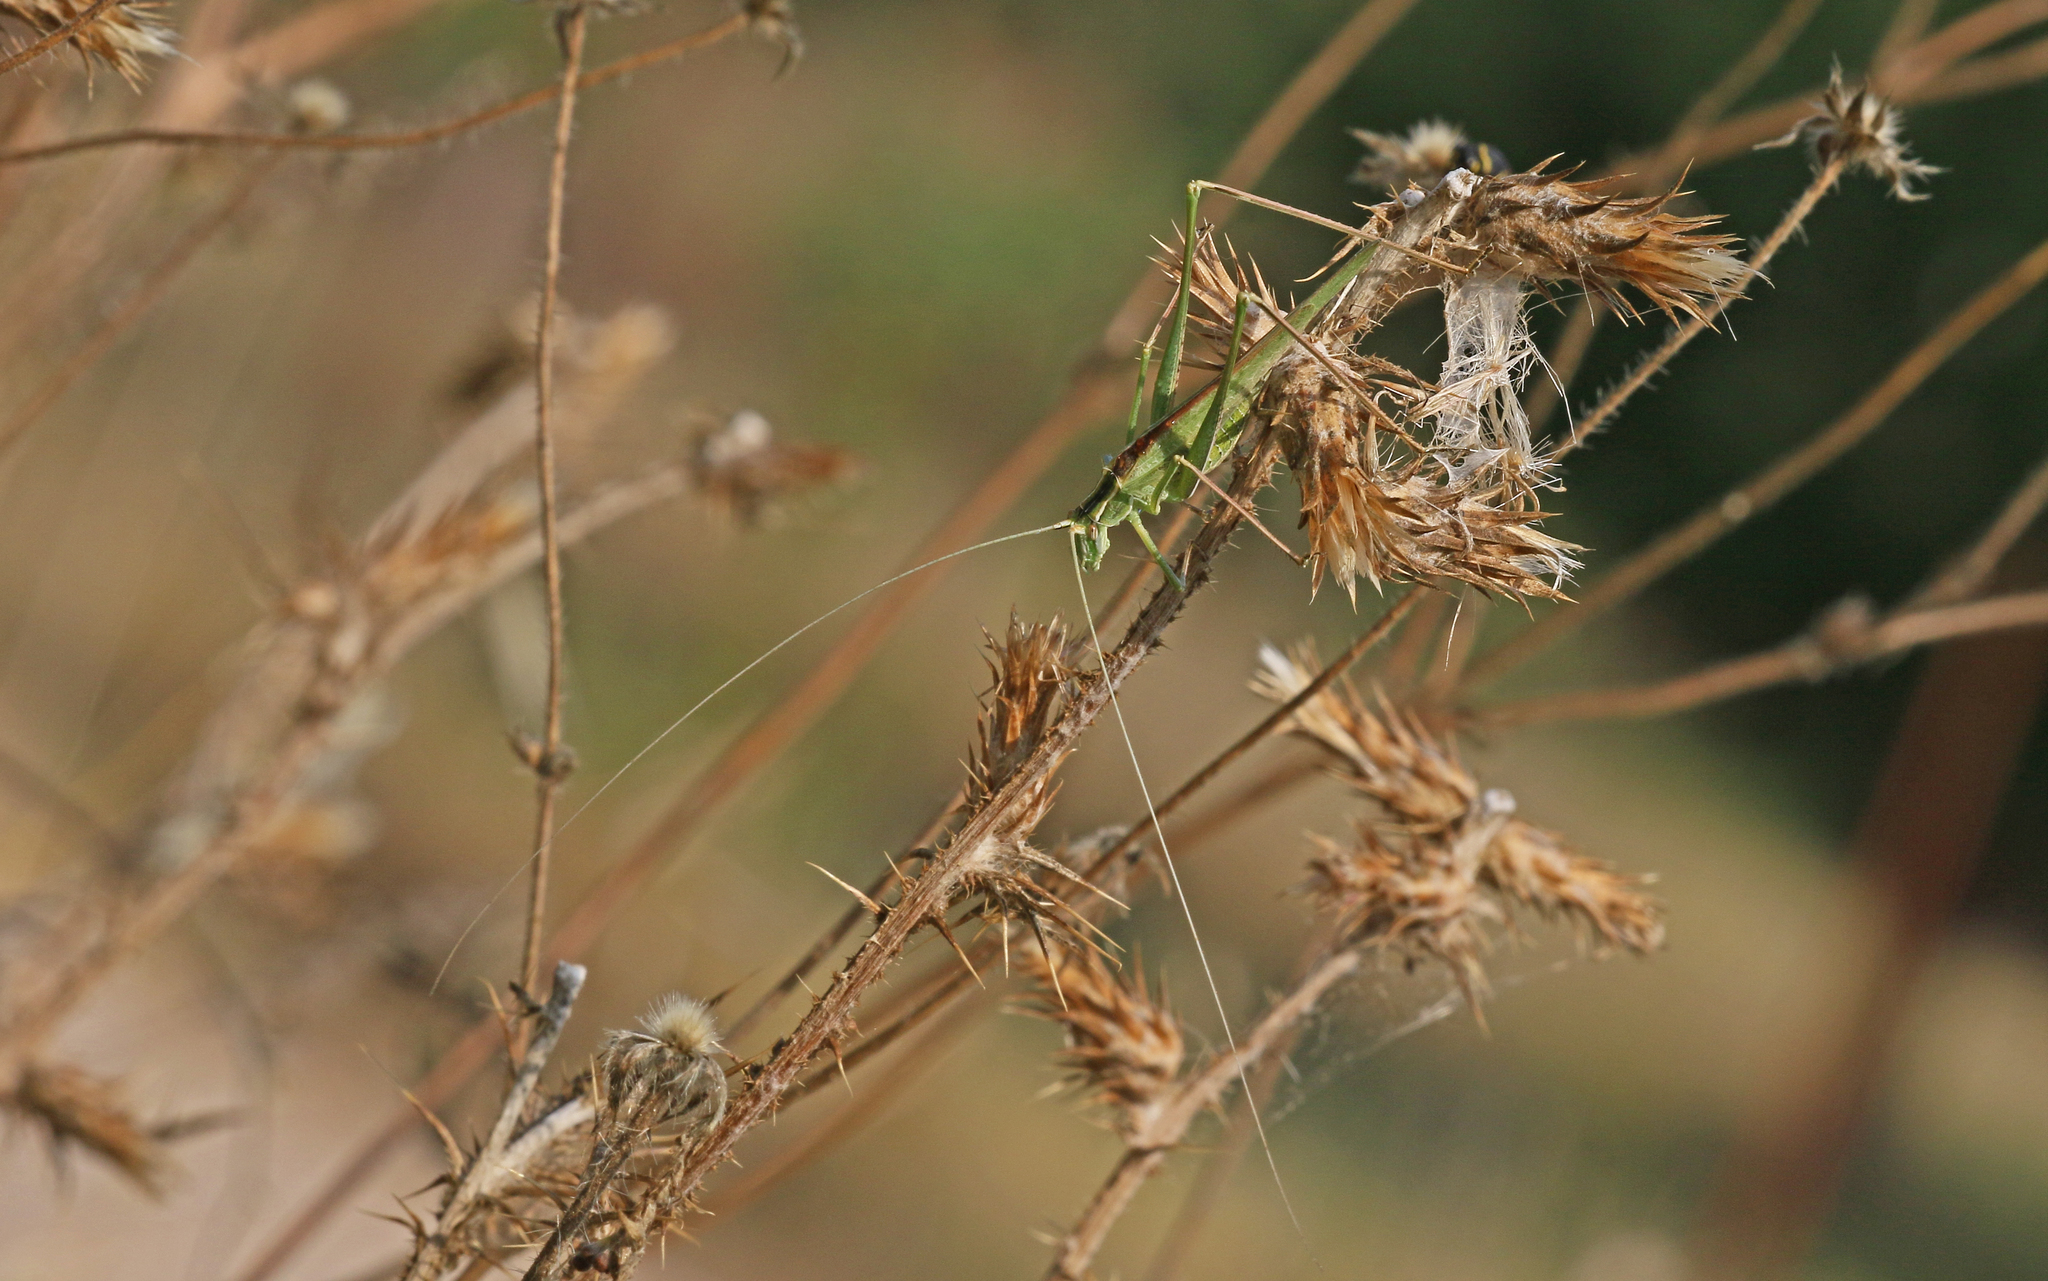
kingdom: Animalia
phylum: Arthropoda
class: Insecta
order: Orthoptera
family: Tettigoniidae
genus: Tylopsis
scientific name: Tylopsis lilifolia
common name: Lily bush-cricket
